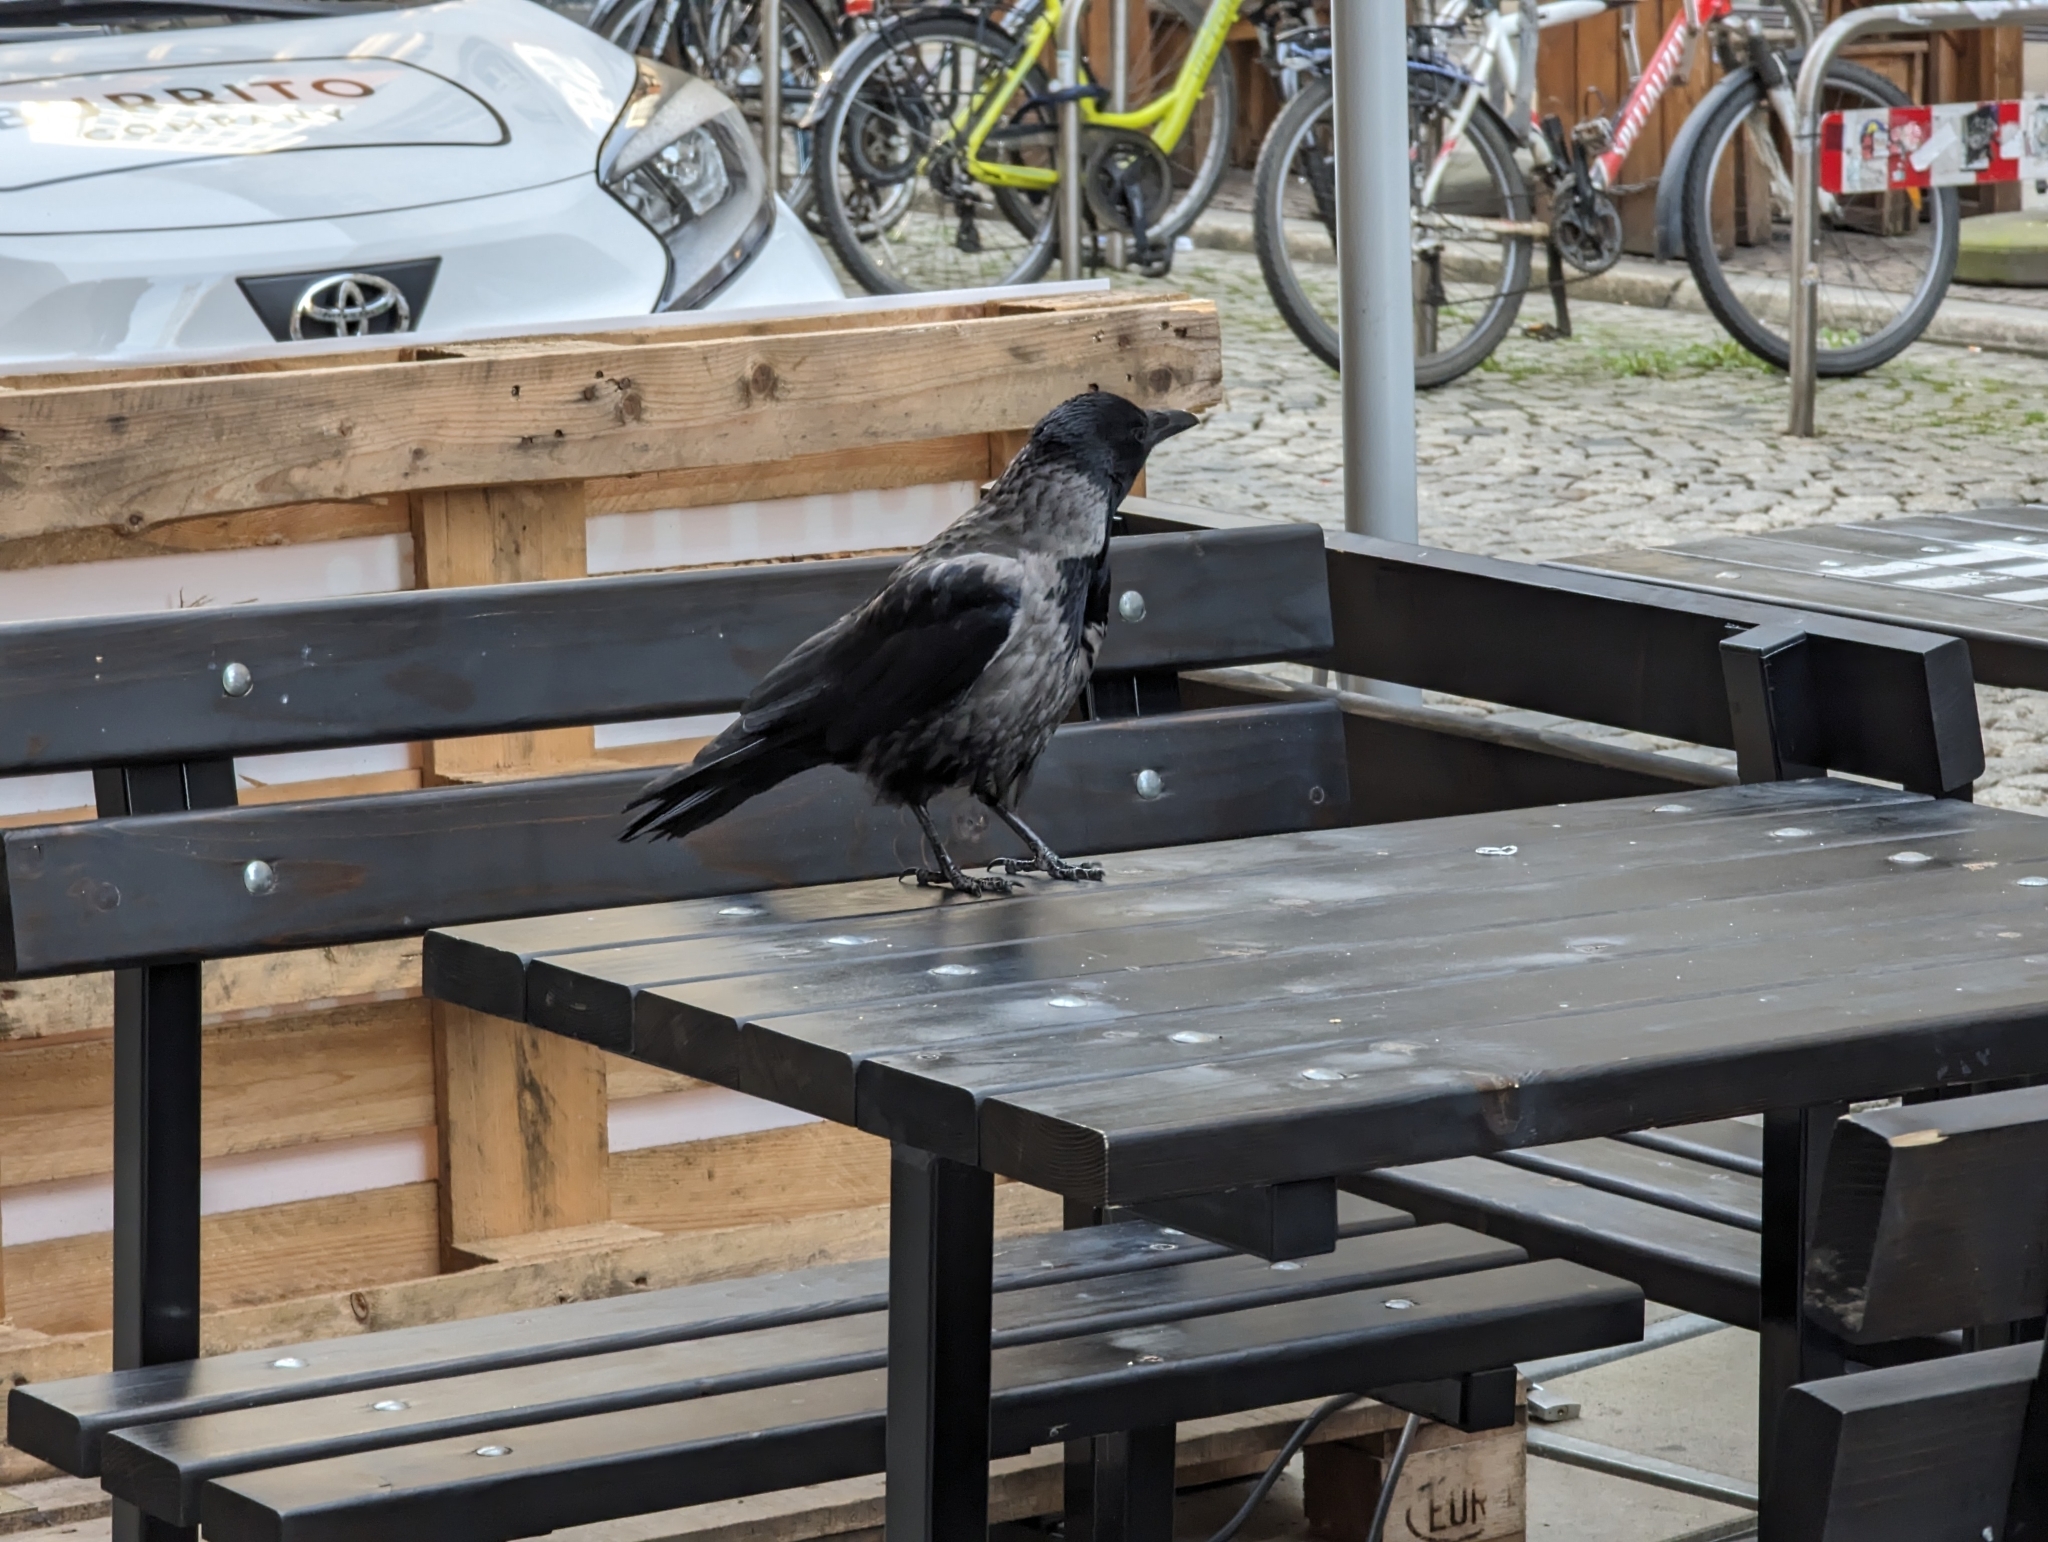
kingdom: Animalia
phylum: Chordata
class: Aves
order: Passeriformes
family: Corvidae
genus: Corvus
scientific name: Corvus
